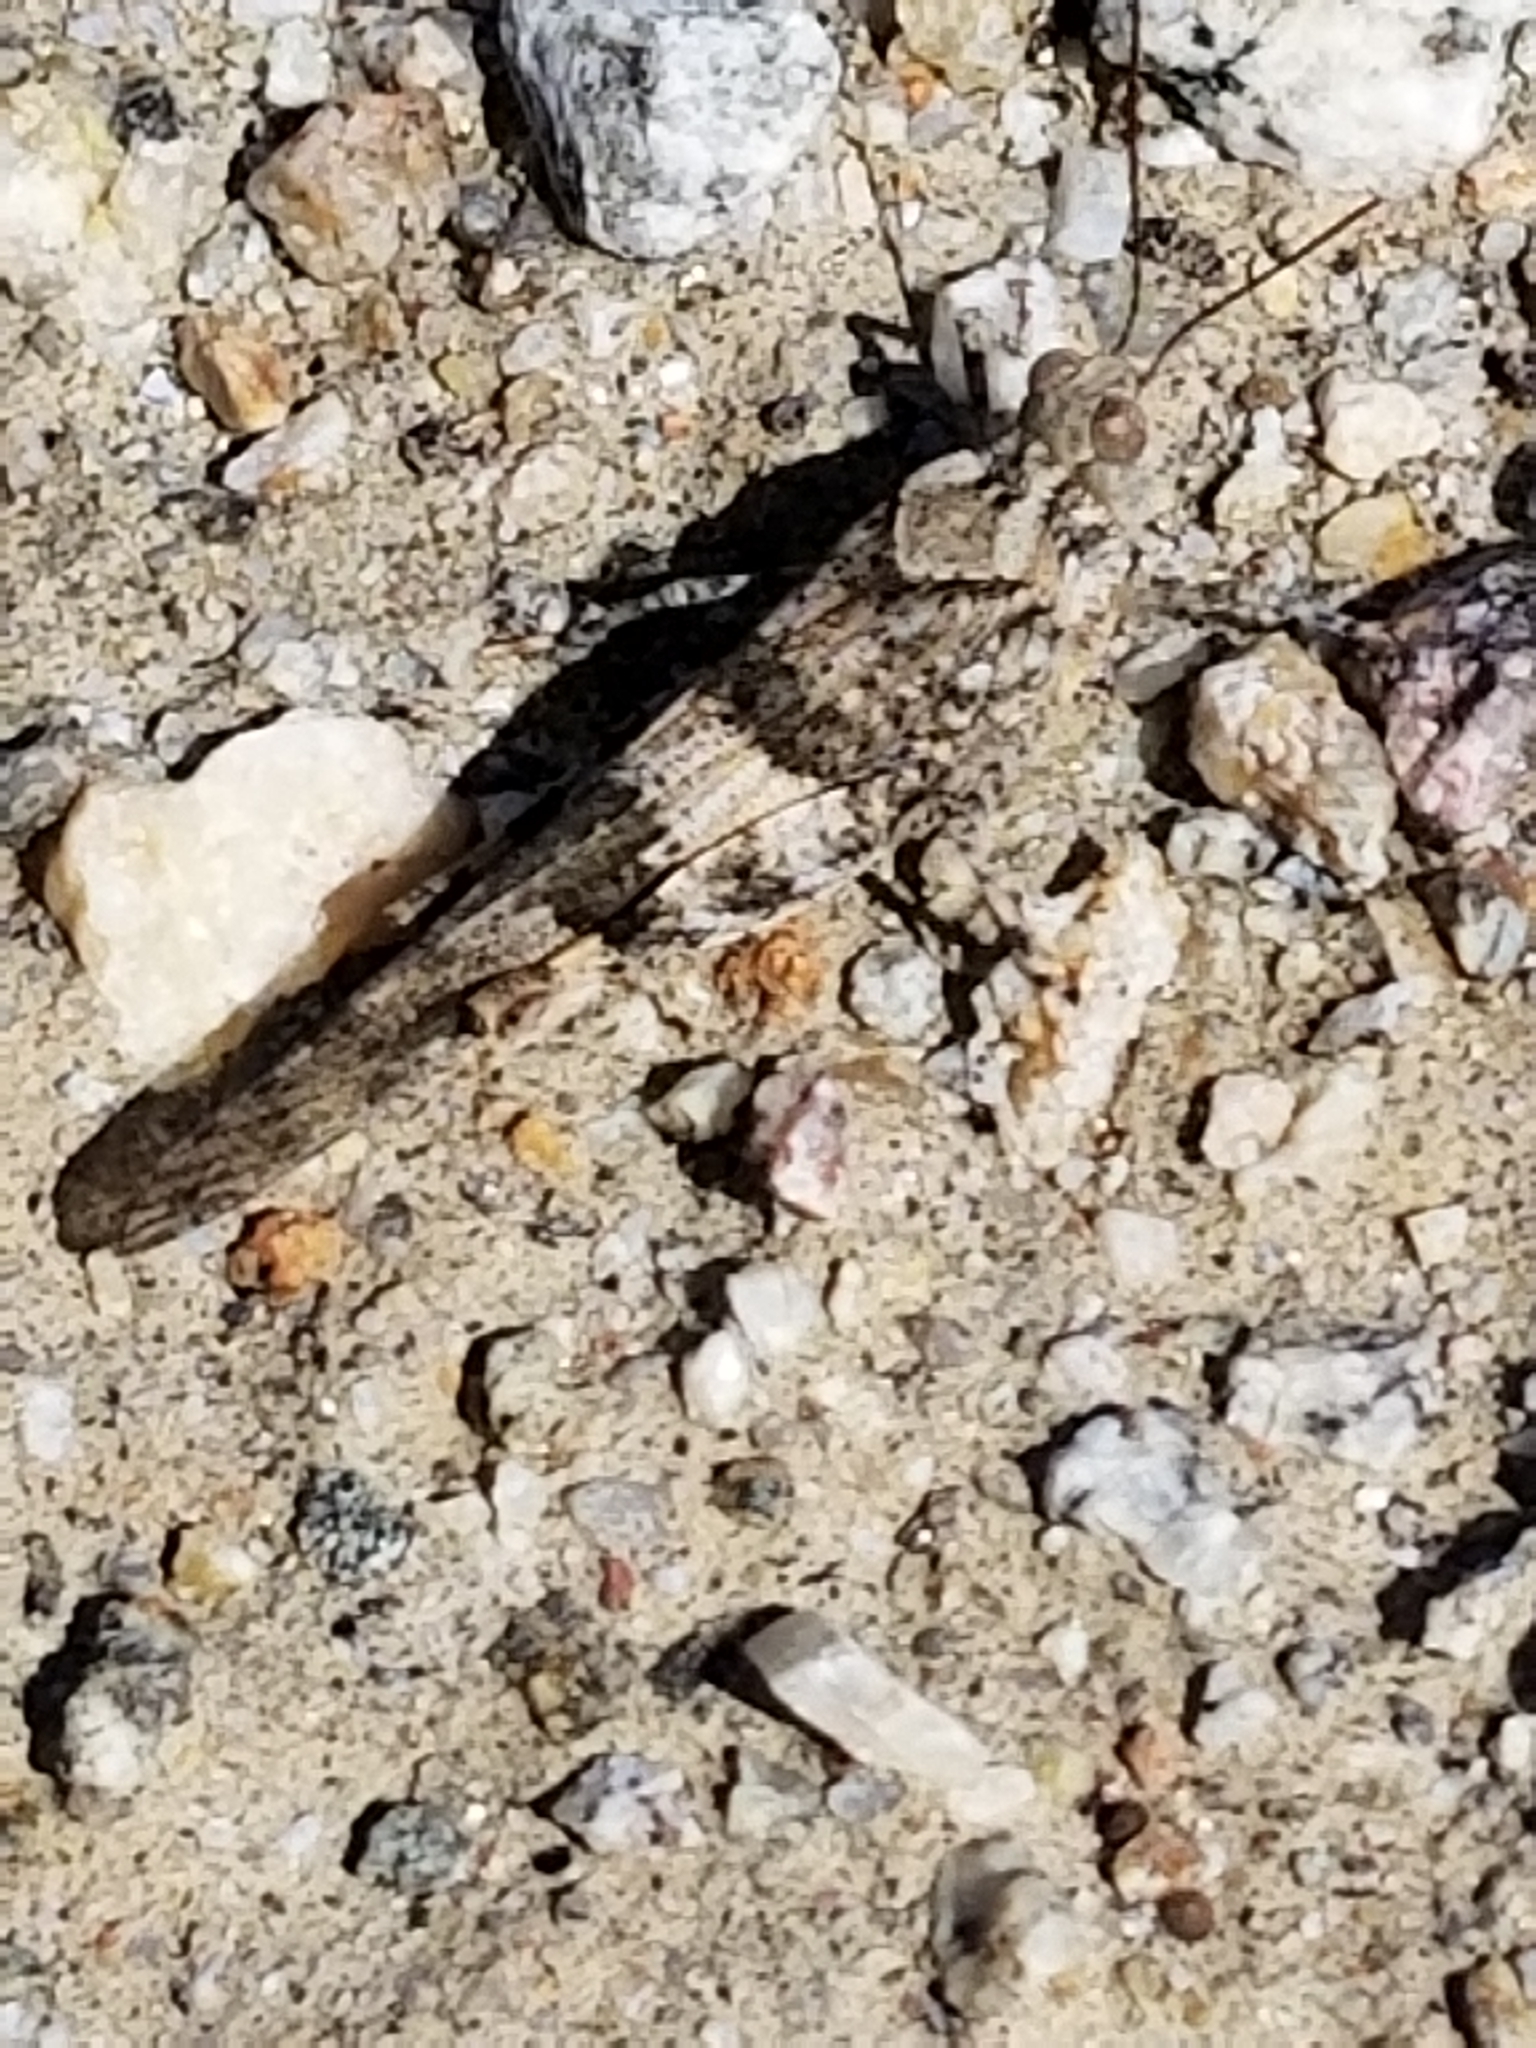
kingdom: Animalia
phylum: Arthropoda
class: Insecta
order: Orthoptera
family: Acrididae
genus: Trimerotropis
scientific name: Trimerotropis pallidipennis
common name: Pallid-winged grasshopper
